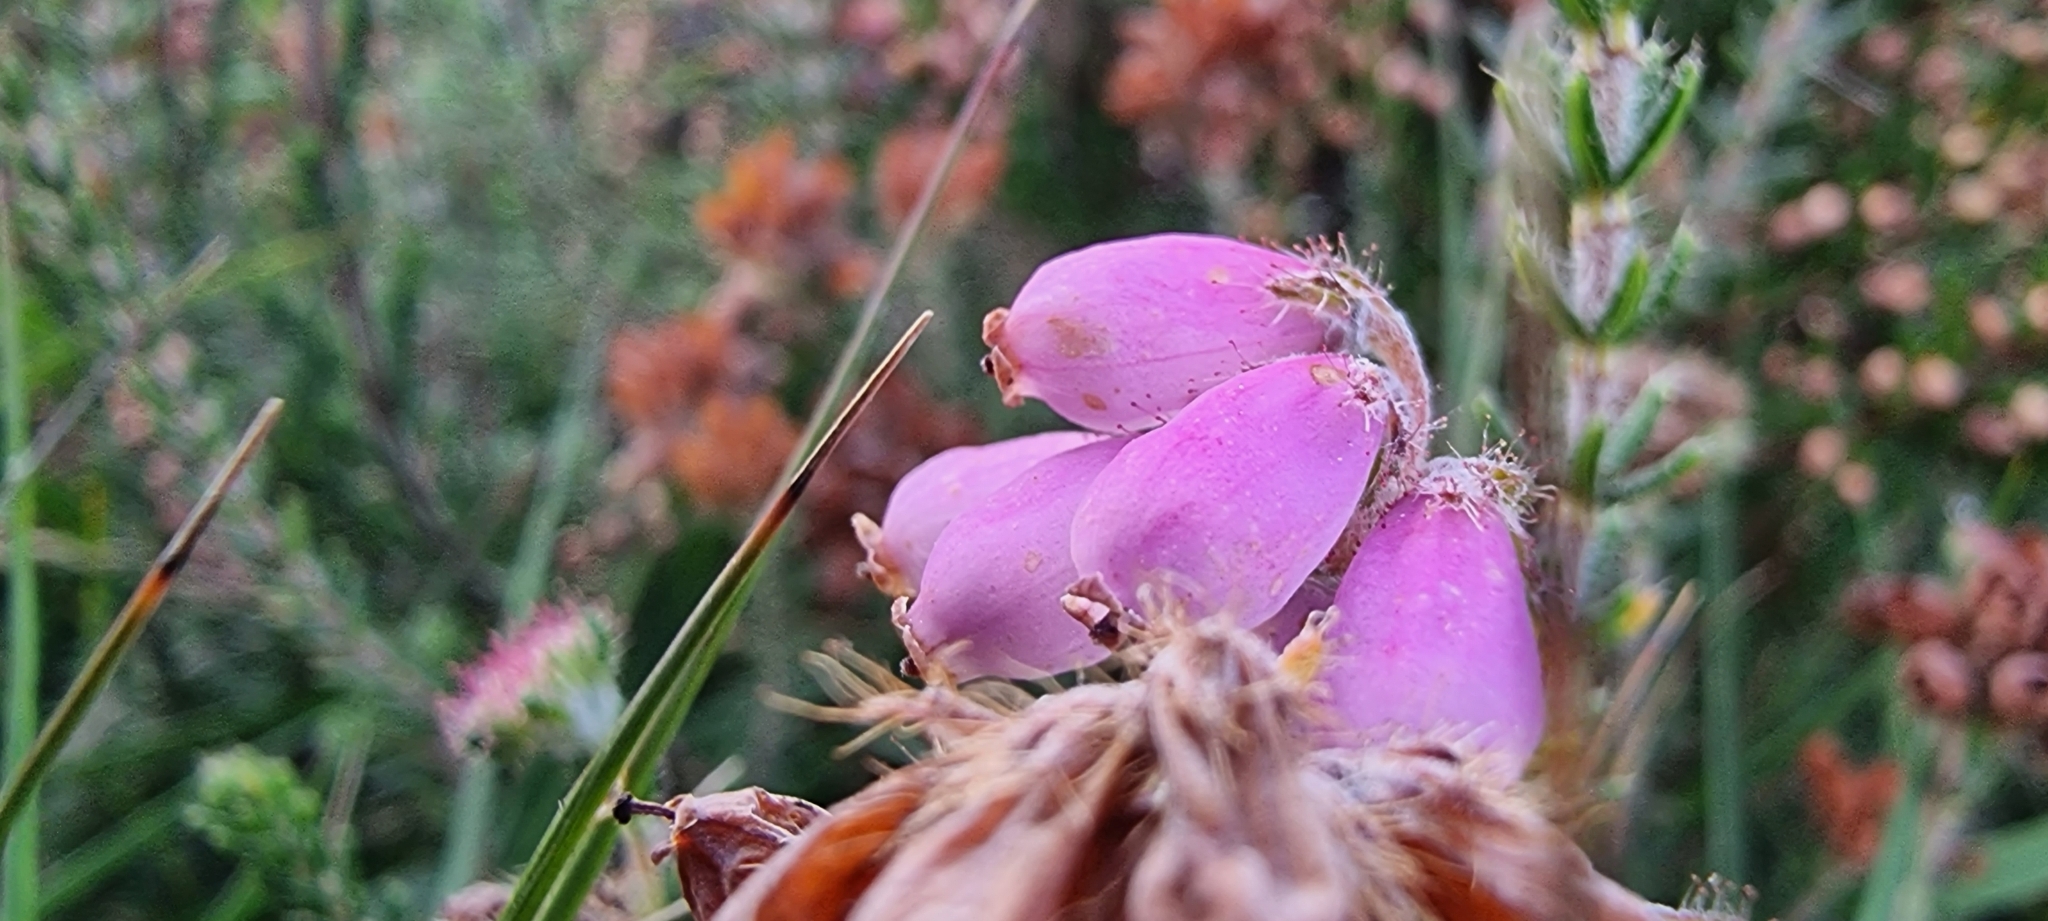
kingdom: Plantae
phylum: Tracheophyta
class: Magnoliopsida
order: Ericales
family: Ericaceae
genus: Erica
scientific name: Erica tetralix
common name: Cross-leaved heath
